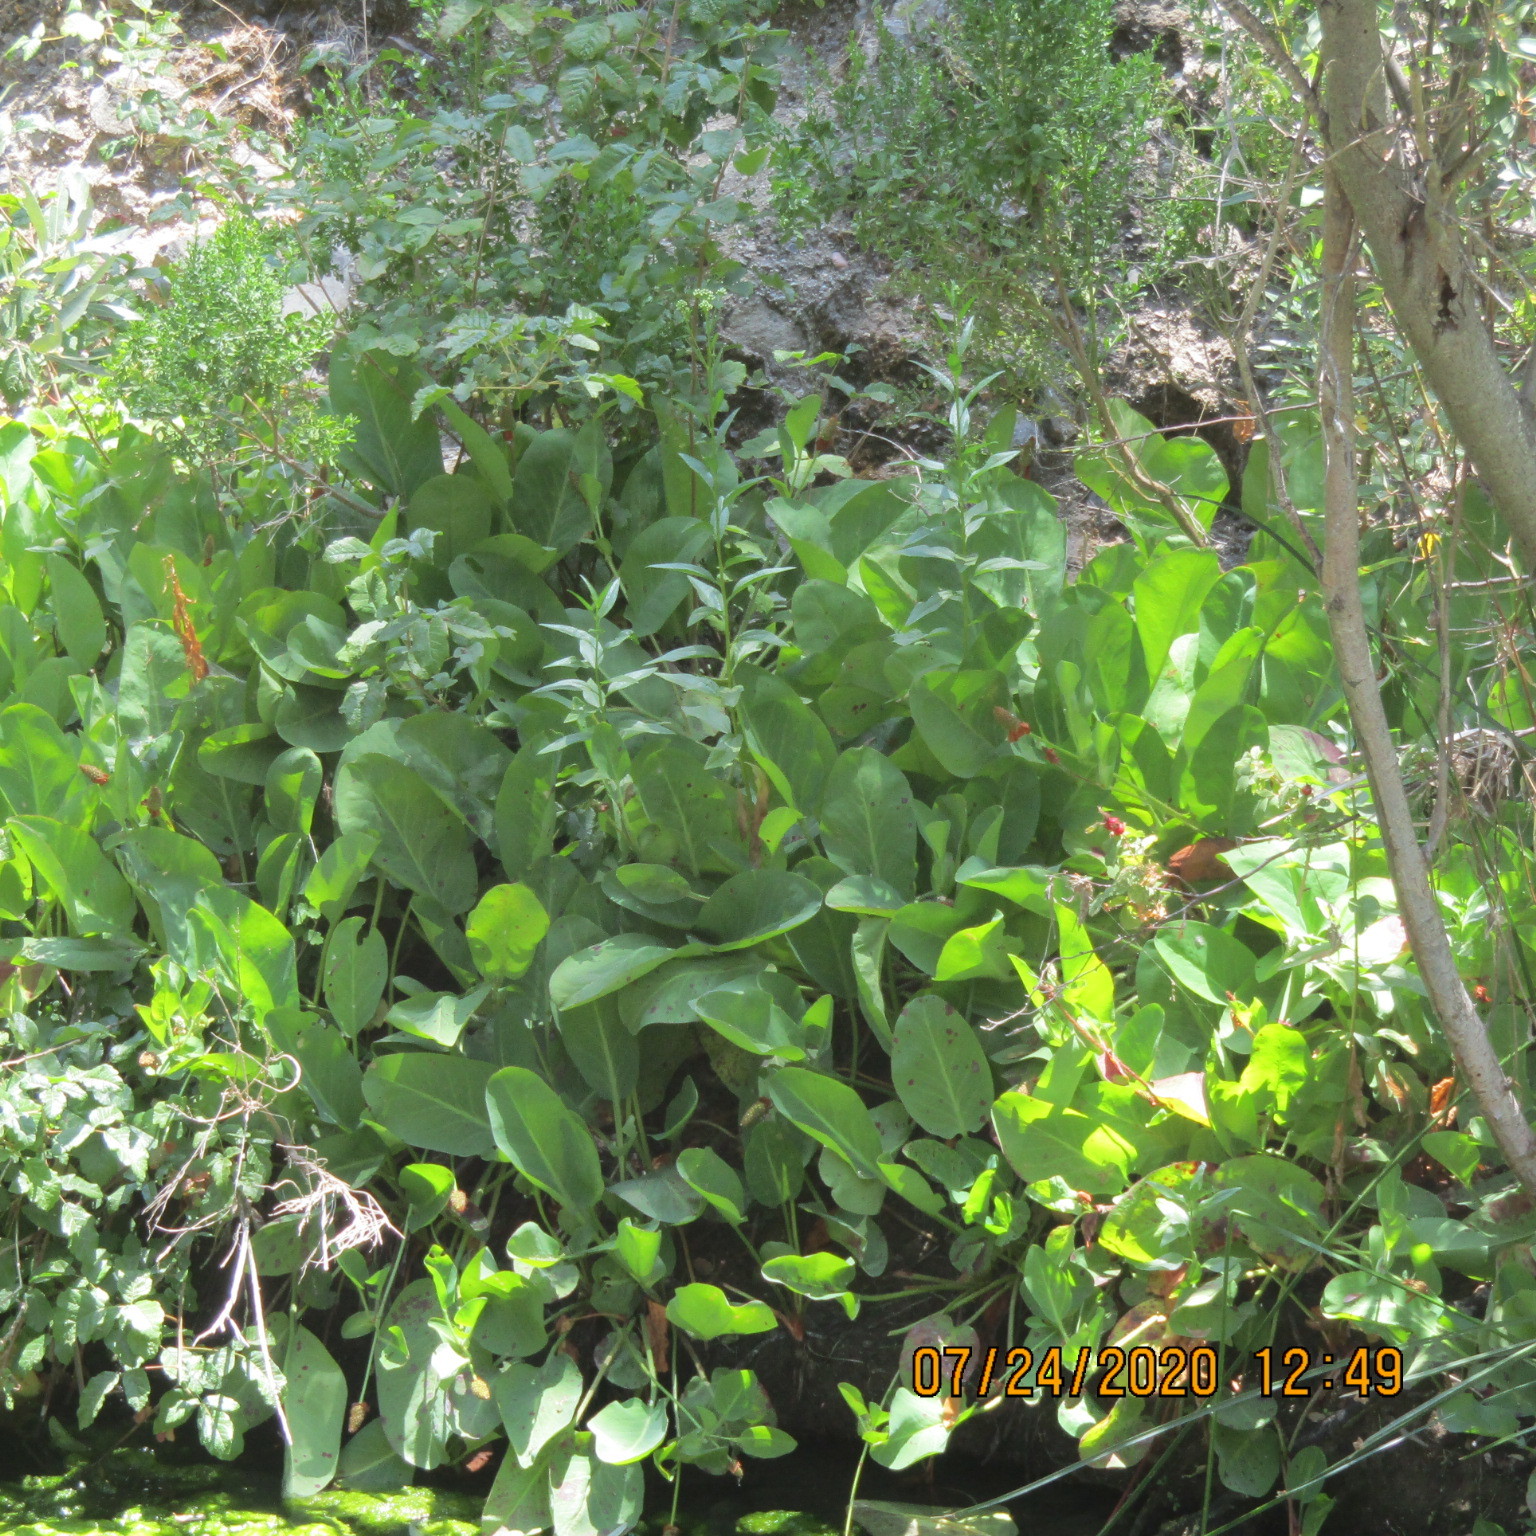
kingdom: Plantae
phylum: Tracheophyta
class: Magnoliopsida
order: Piperales
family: Saururaceae
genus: Anemopsis
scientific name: Anemopsis californica
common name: Apache-beads
